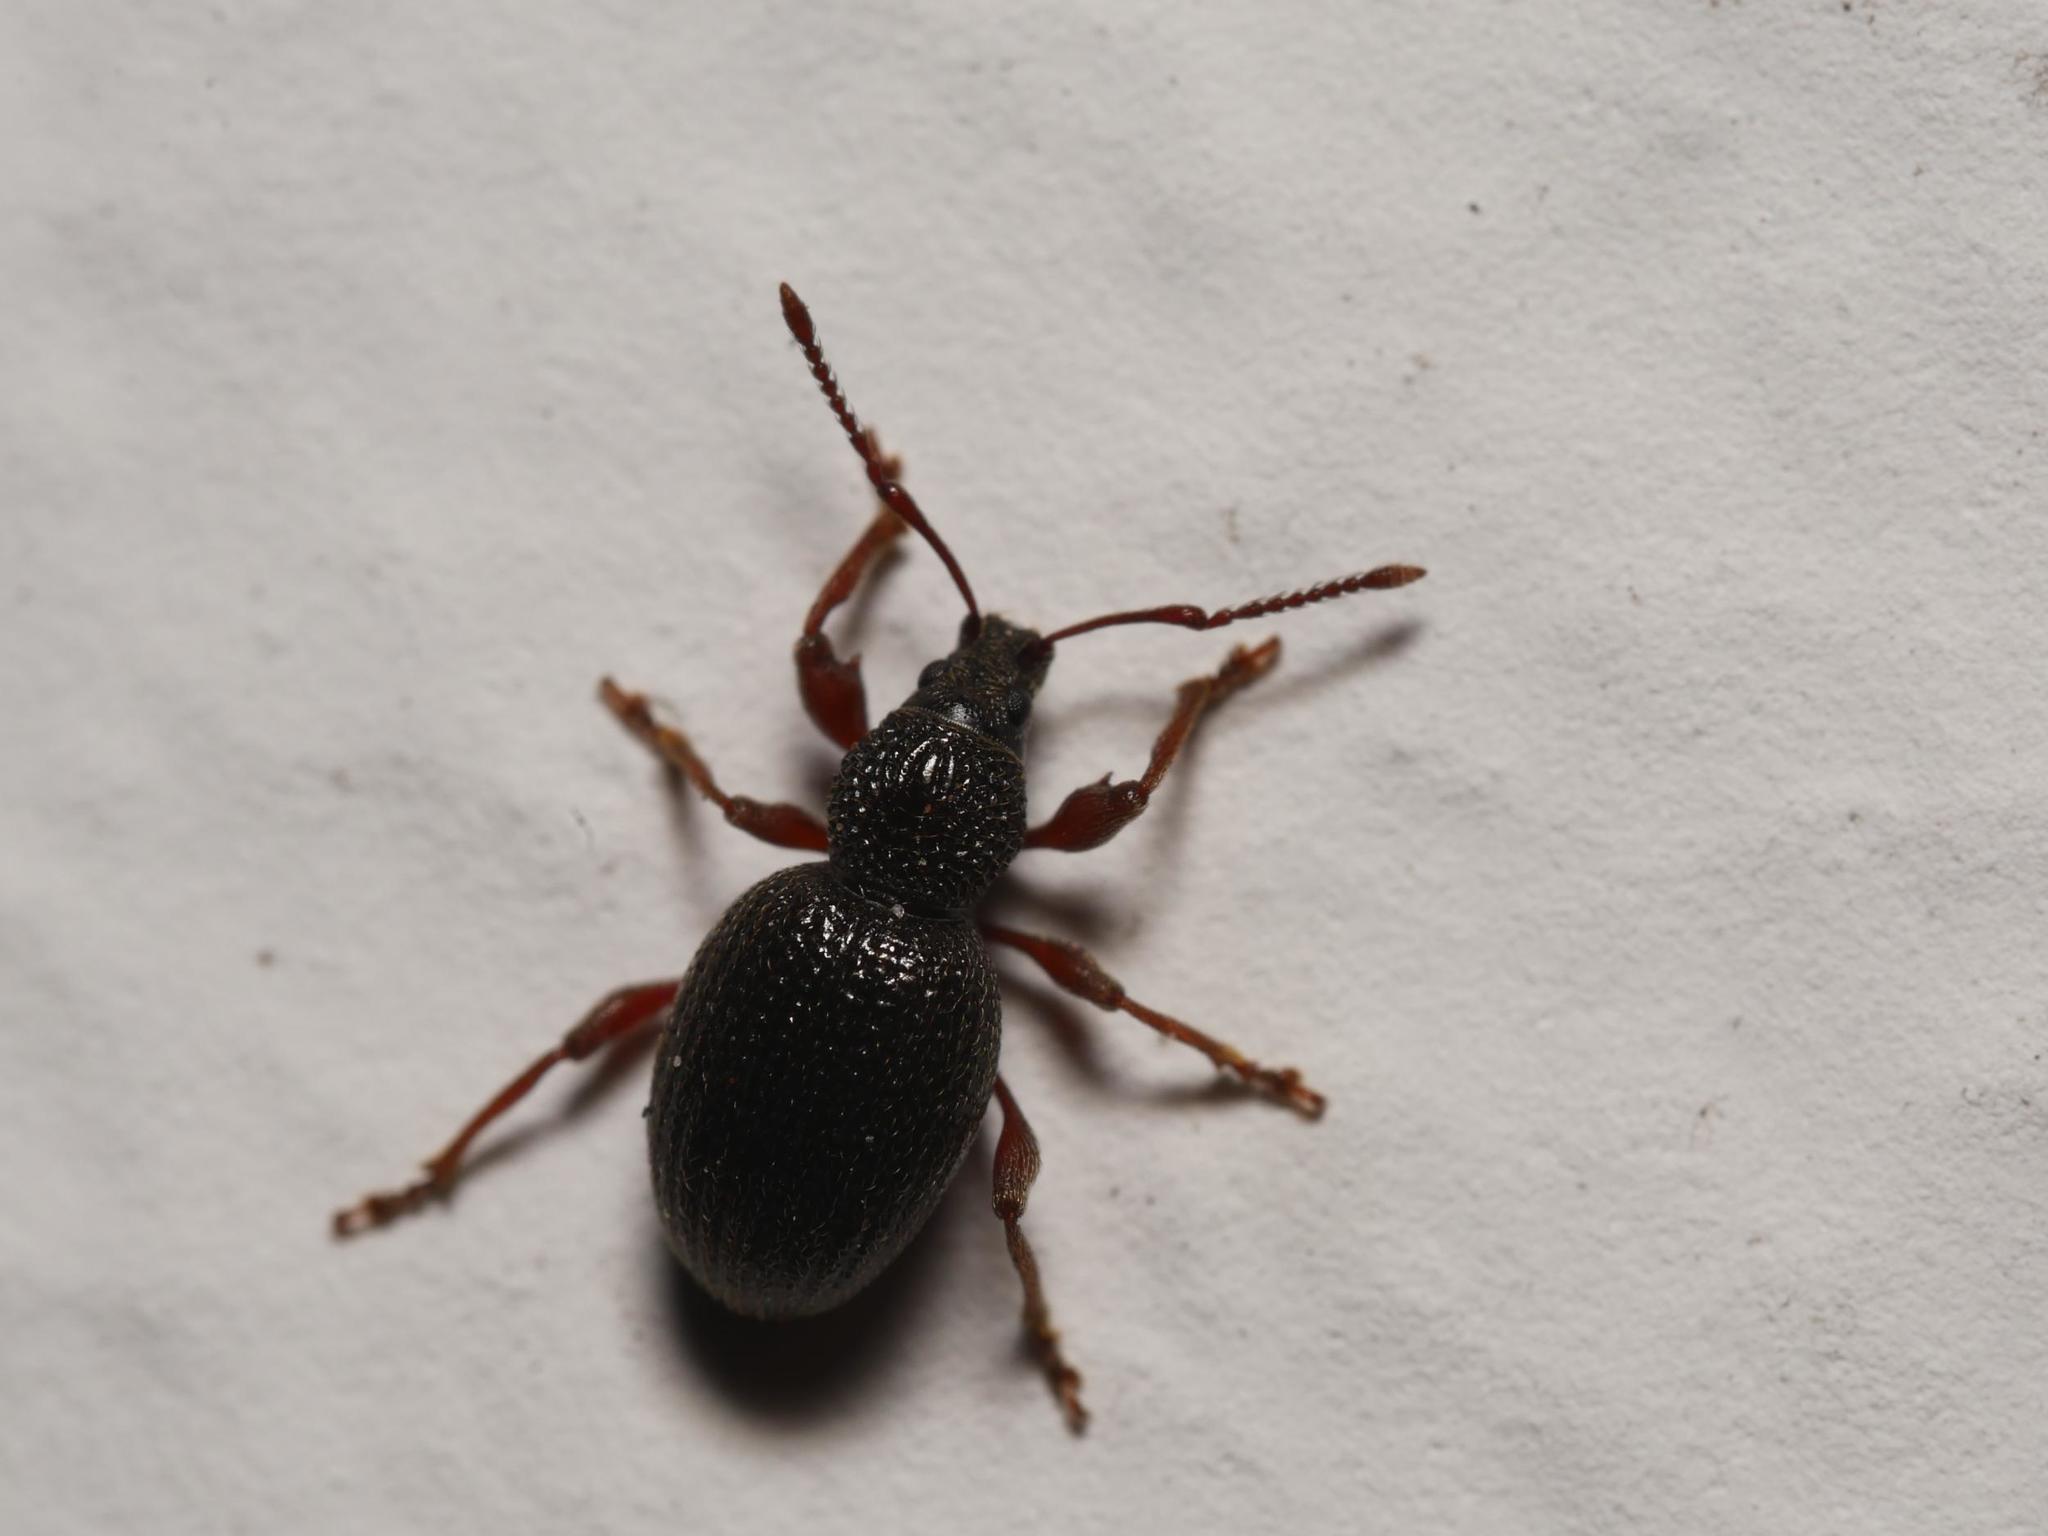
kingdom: Animalia
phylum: Arthropoda
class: Insecta
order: Coleoptera
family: Curculionidae
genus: Otiorhynchus
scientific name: Otiorhynchus ovatus
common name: Strawberry root weevil
